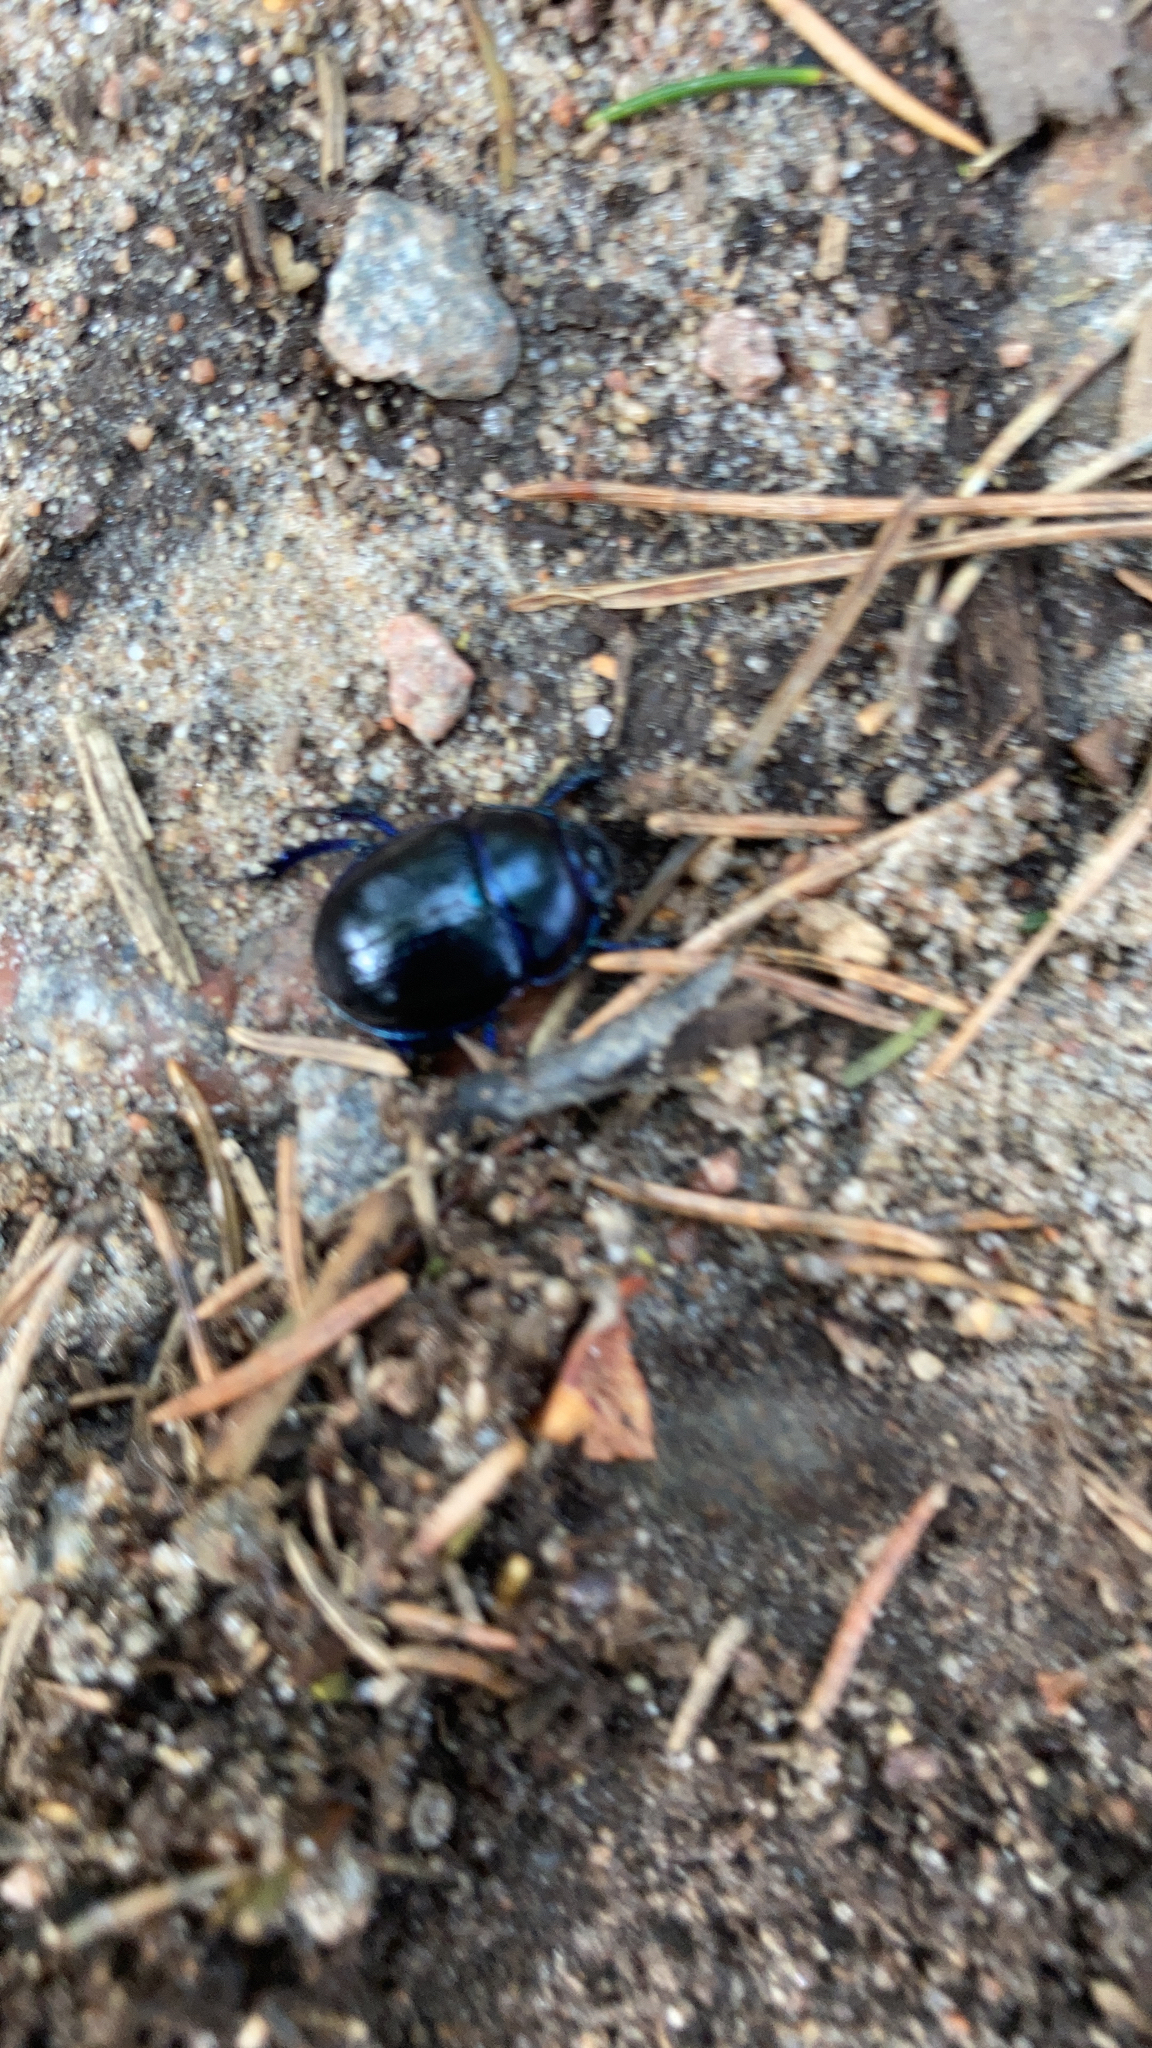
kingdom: Animalia
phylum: Arthropoda
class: Insecta
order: Coleoptera
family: Geotrupidae
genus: Anoplotrupes
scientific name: Anoplotrupes stercorosus
